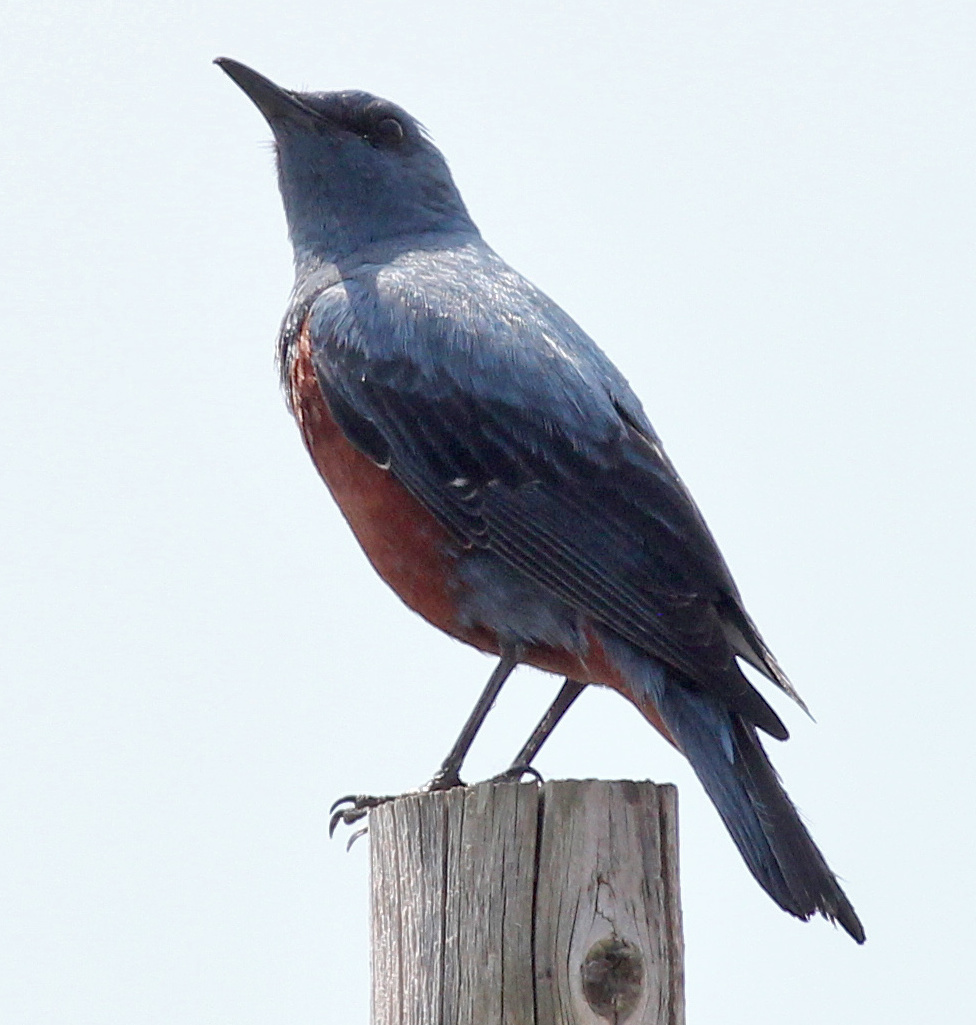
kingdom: Animalia
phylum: Chordata
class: Aves
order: Passeriformes
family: Muscicapidae
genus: Monticola
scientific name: Monticola solitarius
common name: Blue rock thrush
